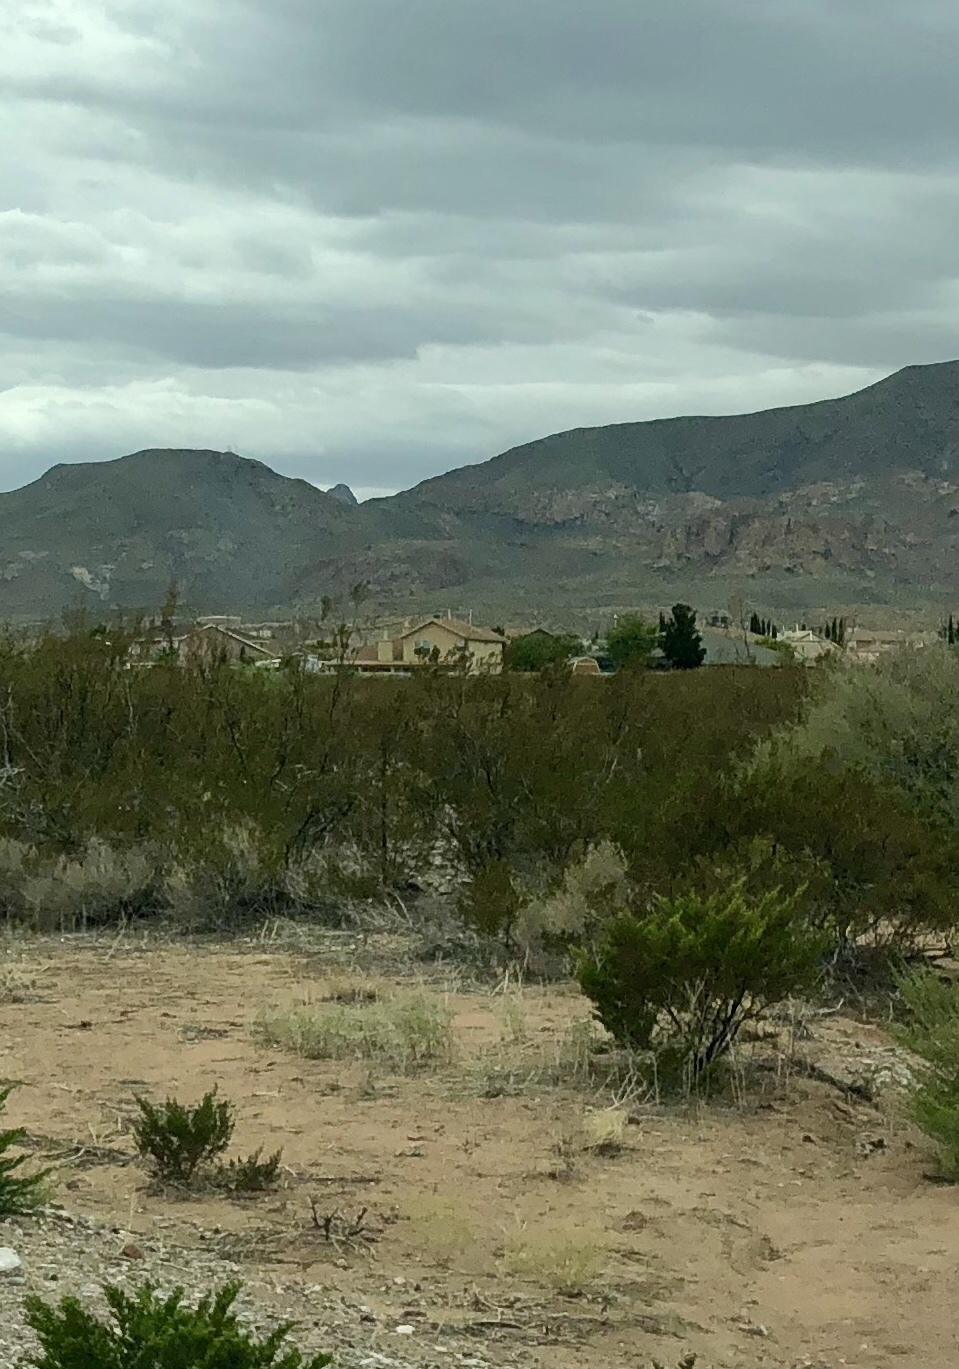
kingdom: Plantae
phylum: Tracheophyta
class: Magnoliopsida
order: Zygophyllales
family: Zygophyllaceae
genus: Larrea
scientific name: Larrea tridentata
